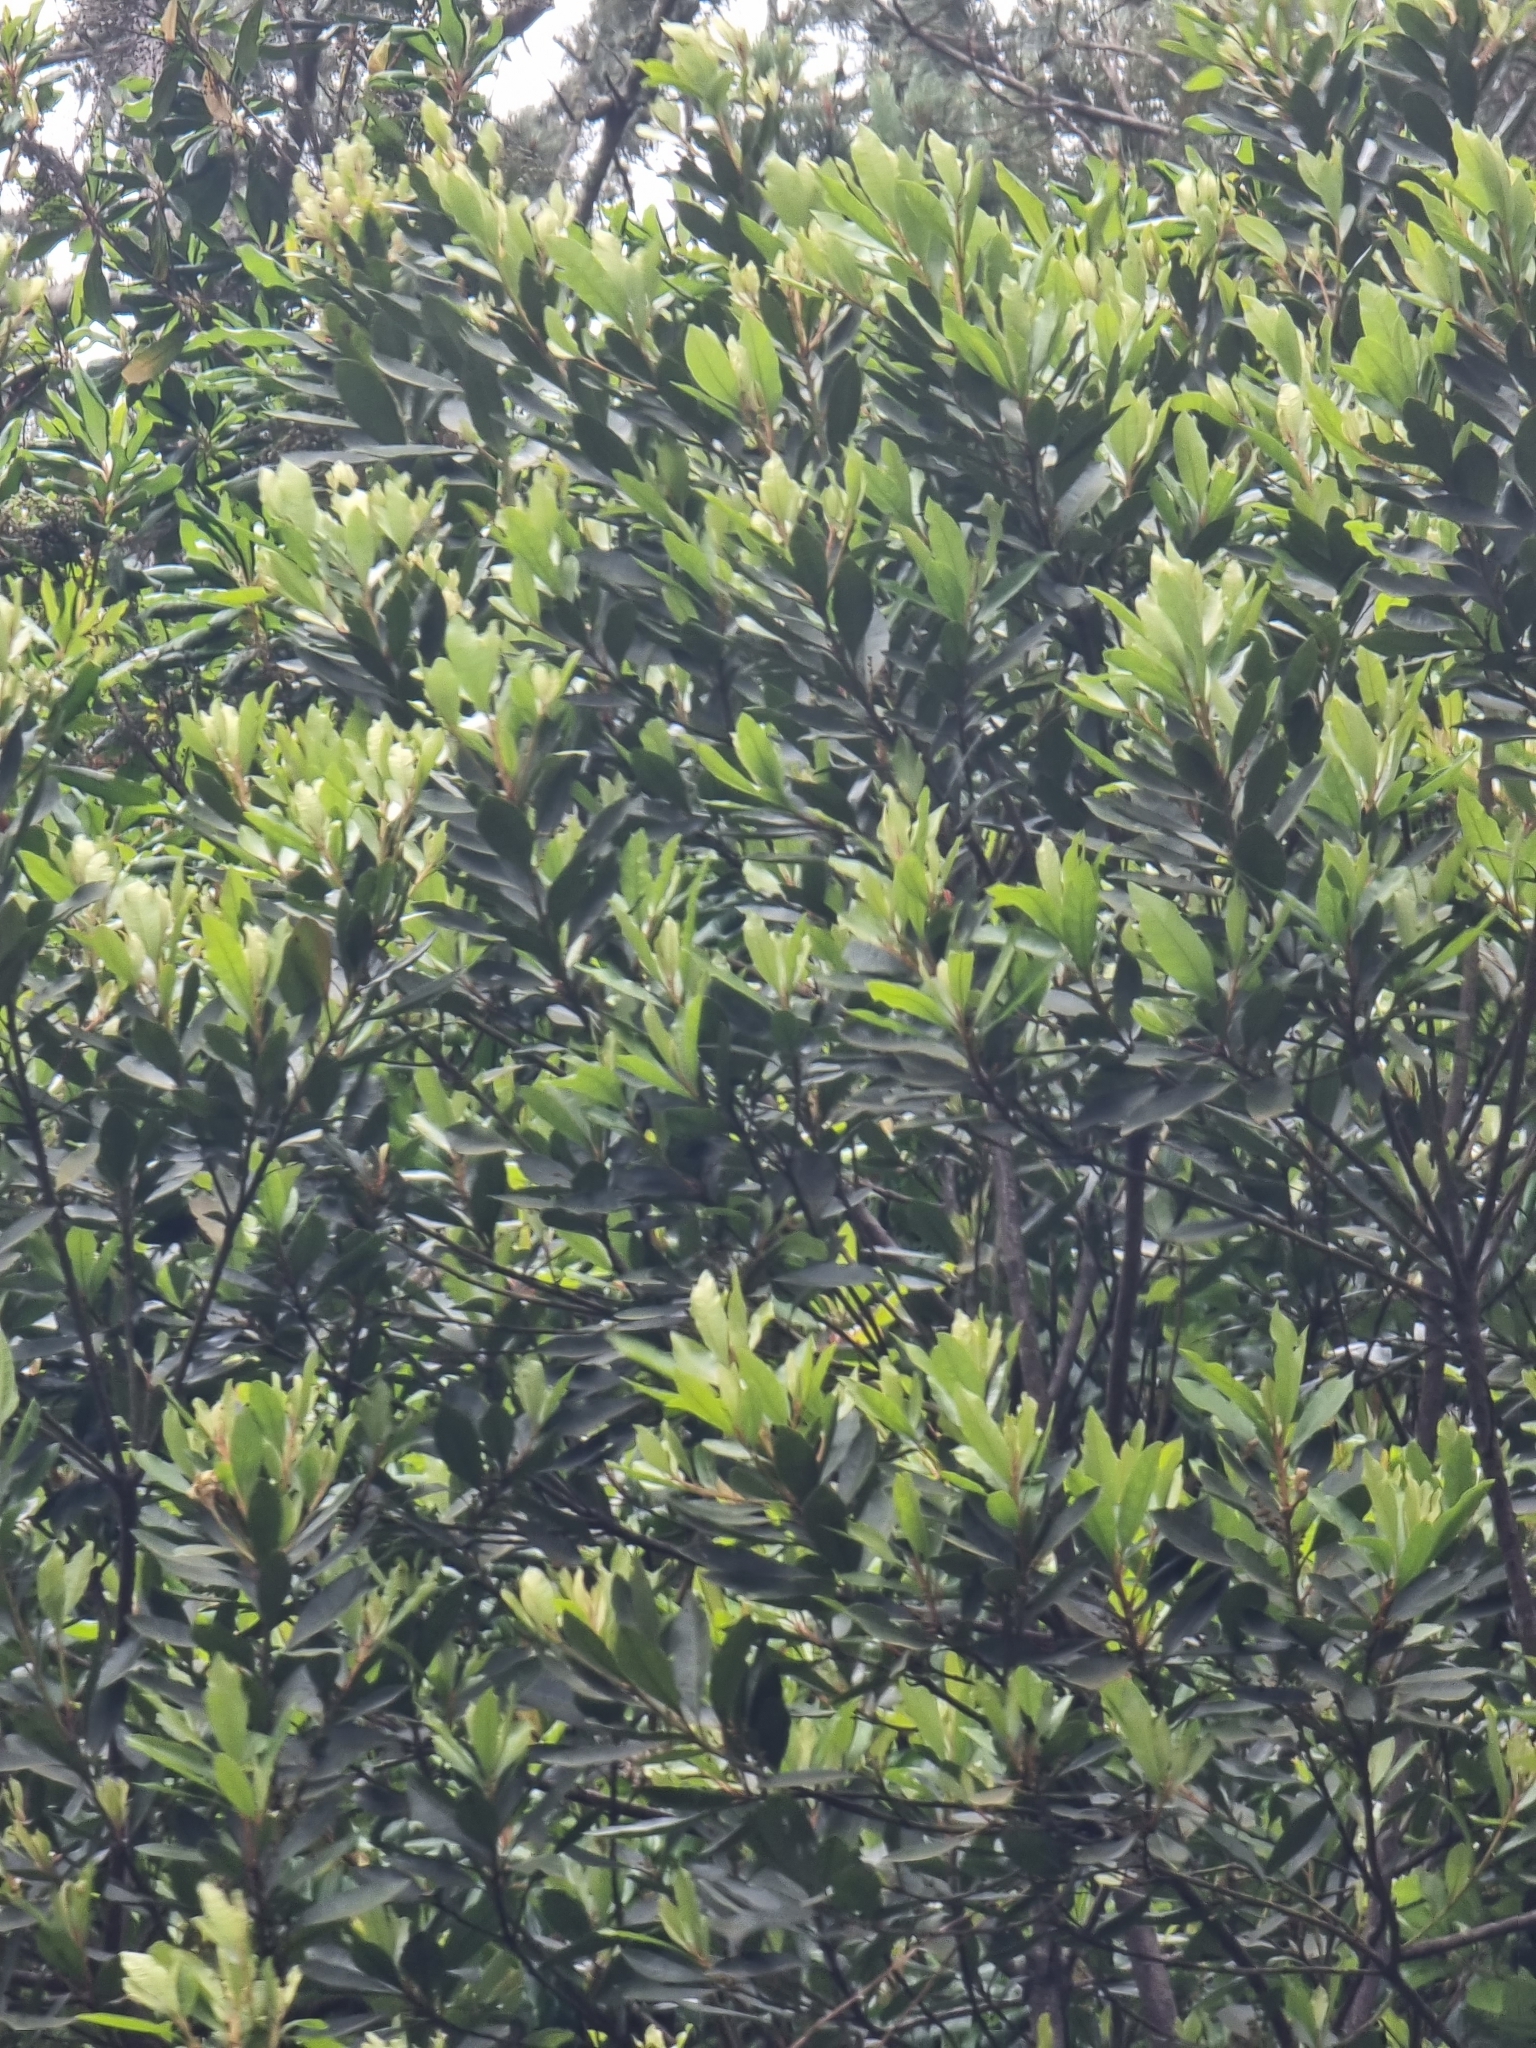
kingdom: Plantae
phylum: Tracheophyta
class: Magnoliopsida
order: Fagales
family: Myricaceae
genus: Morella
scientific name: Morella faya
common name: Firetree
